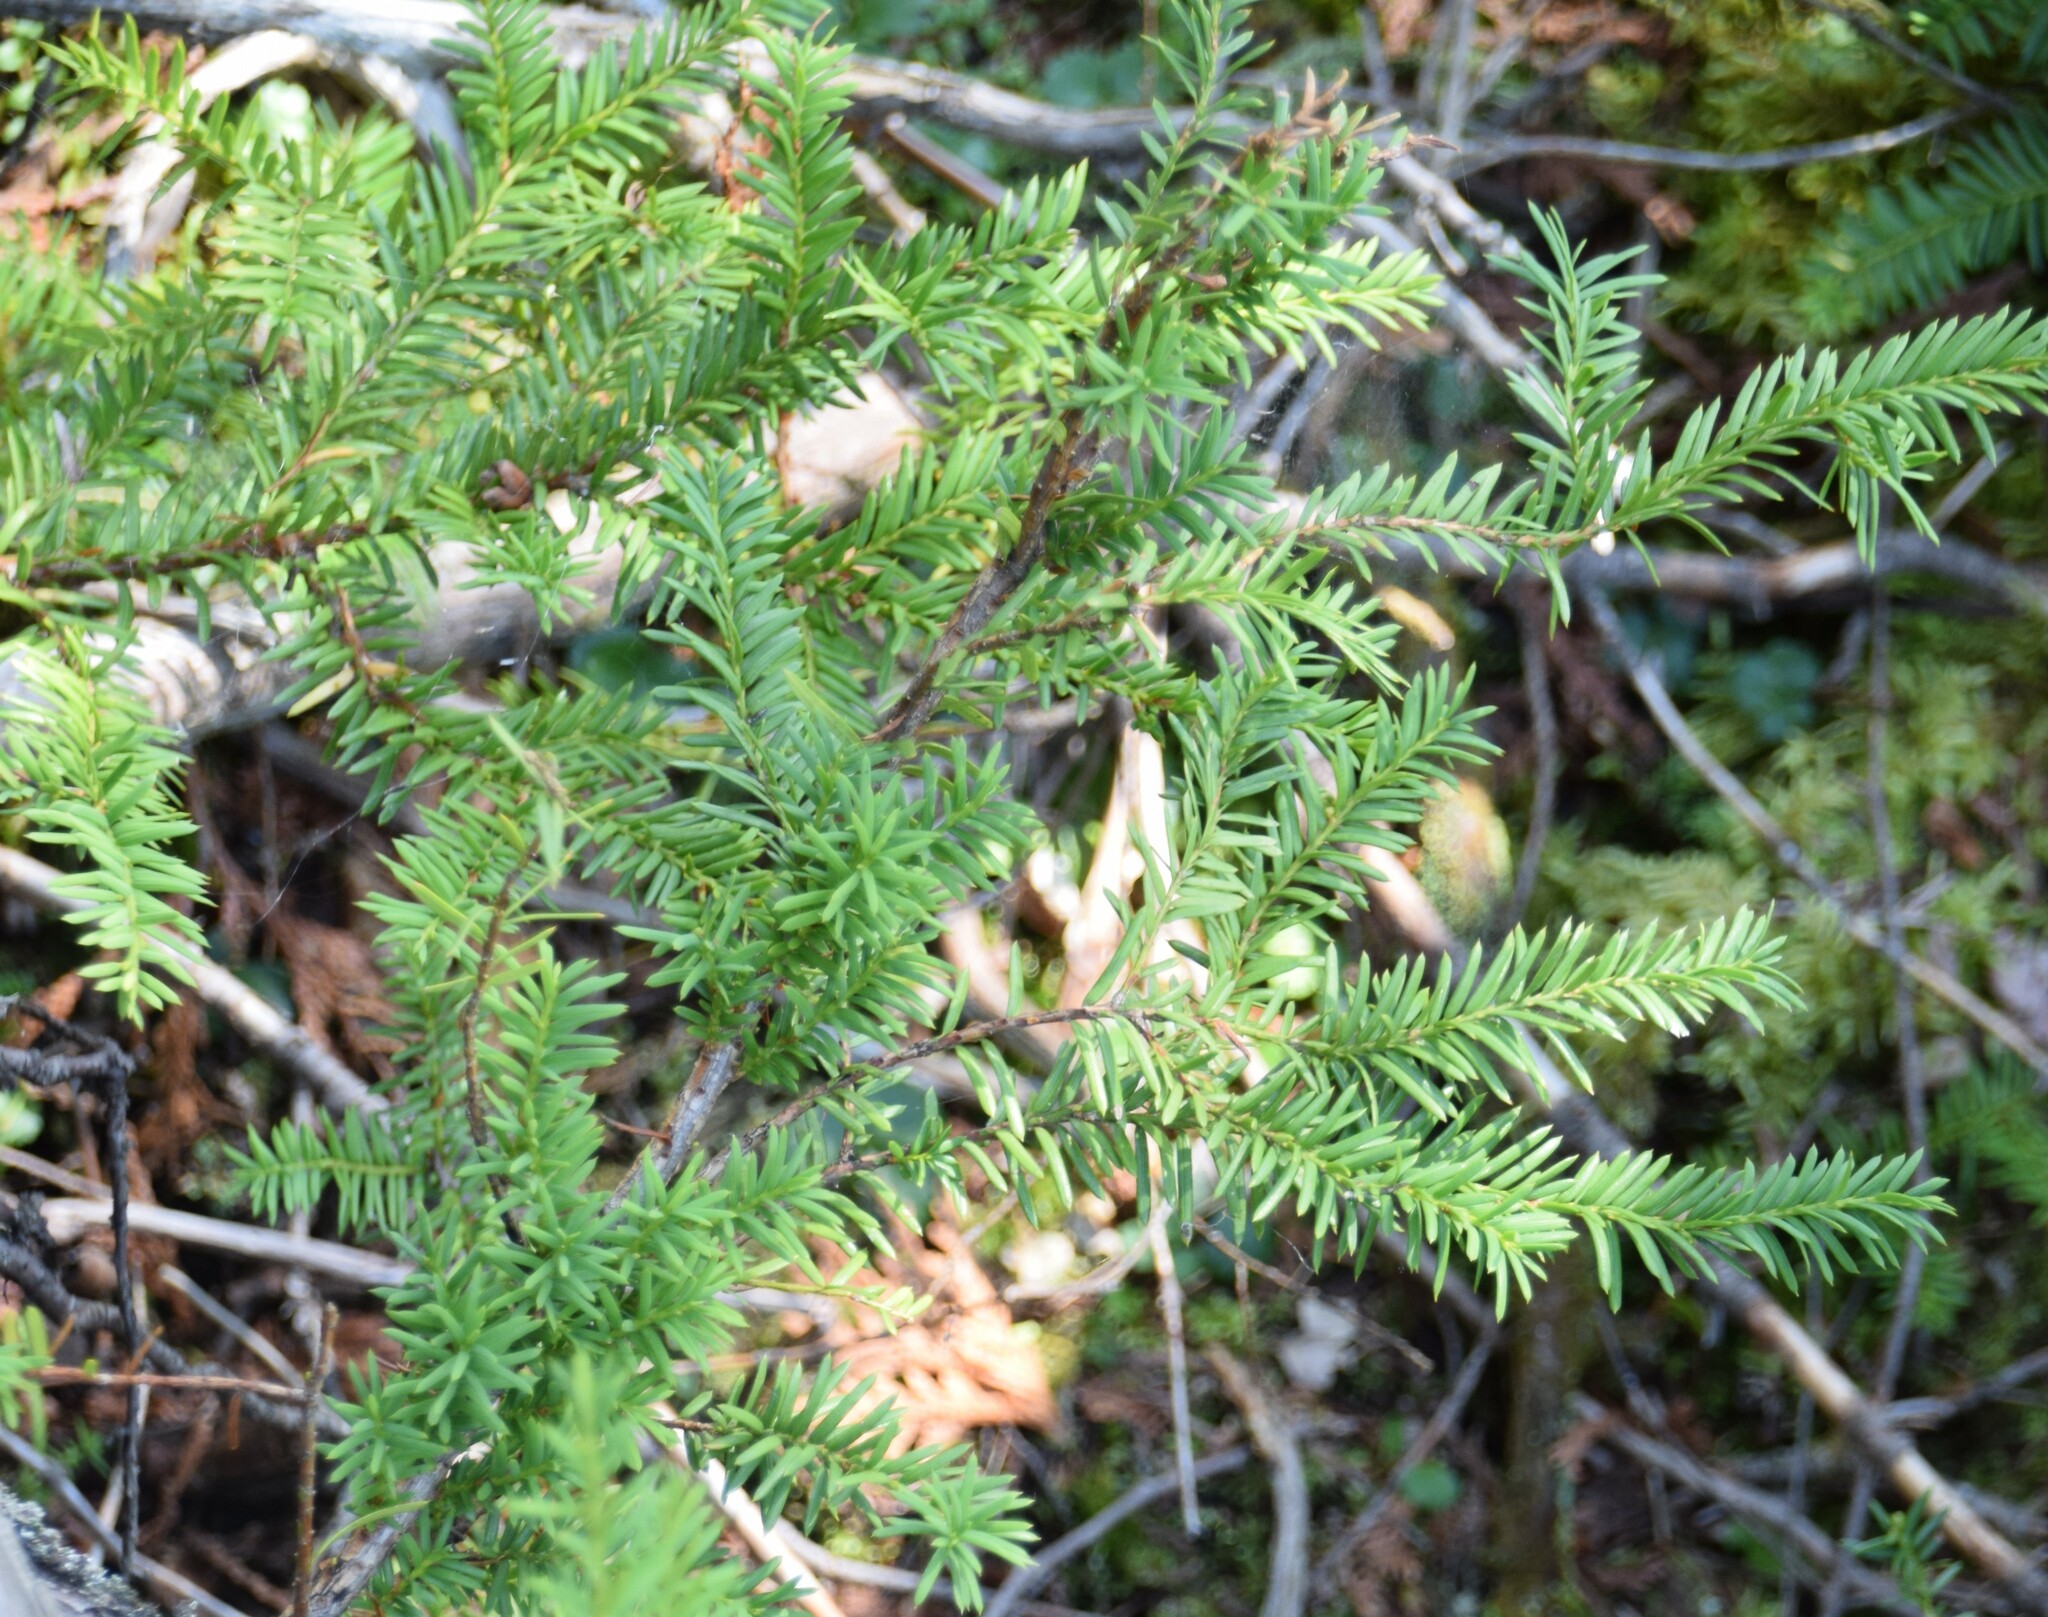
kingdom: Plantae
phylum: Tracheophyta
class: Pinopsida
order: Pinales
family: Taxaceae
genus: Taxus
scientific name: Taxus canadensis
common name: American yew
